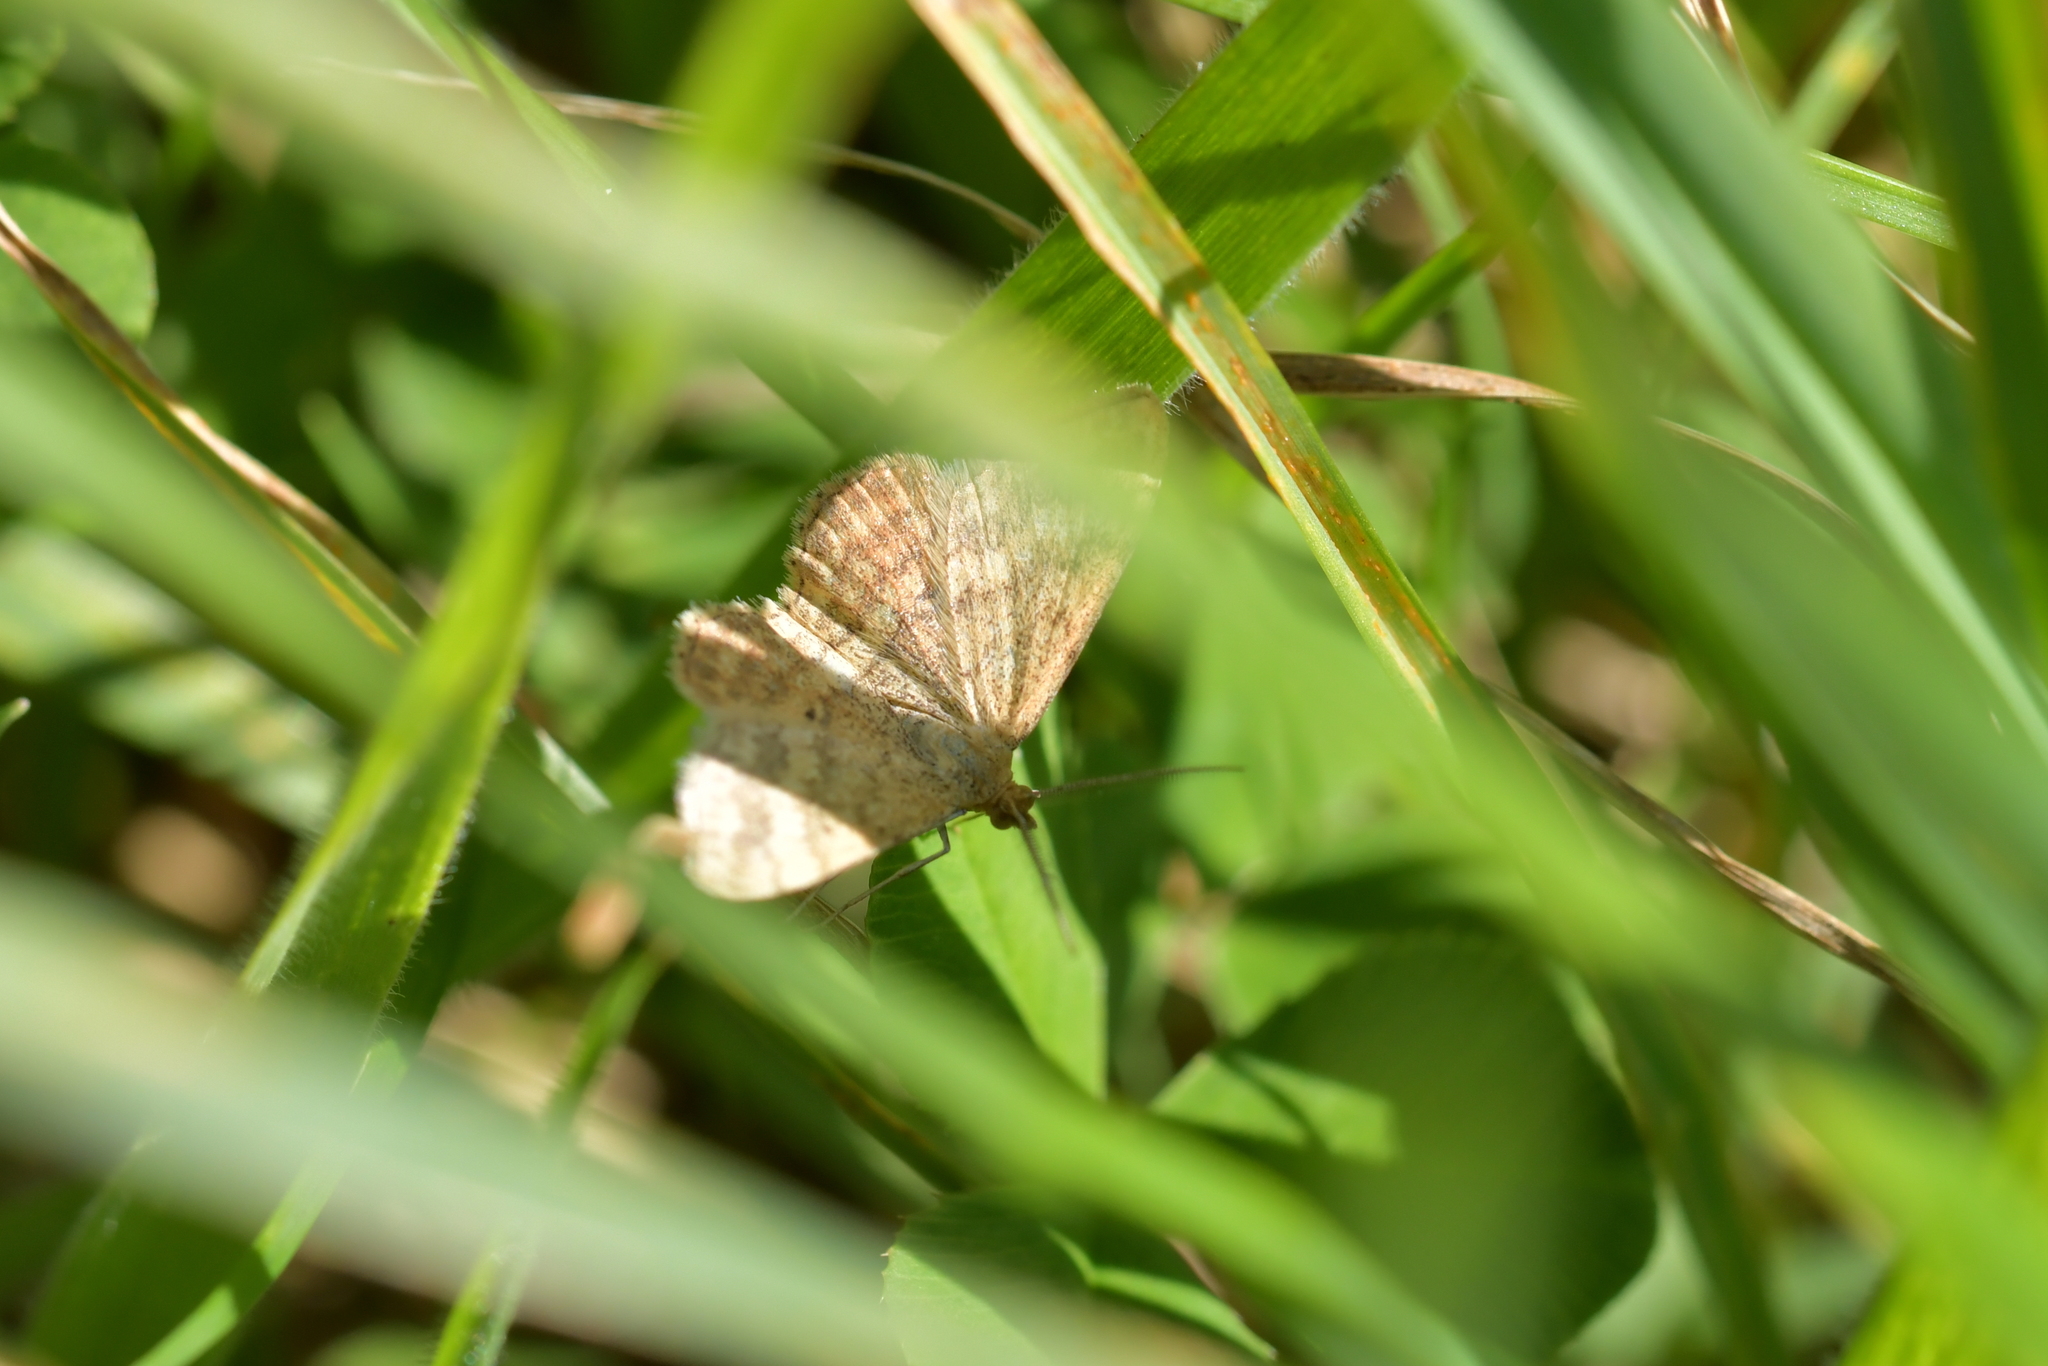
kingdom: Animalia
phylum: Arthropoda
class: Insecta
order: Lepidoptera
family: Geometridae
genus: Scopula
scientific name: Scopula rubraria
